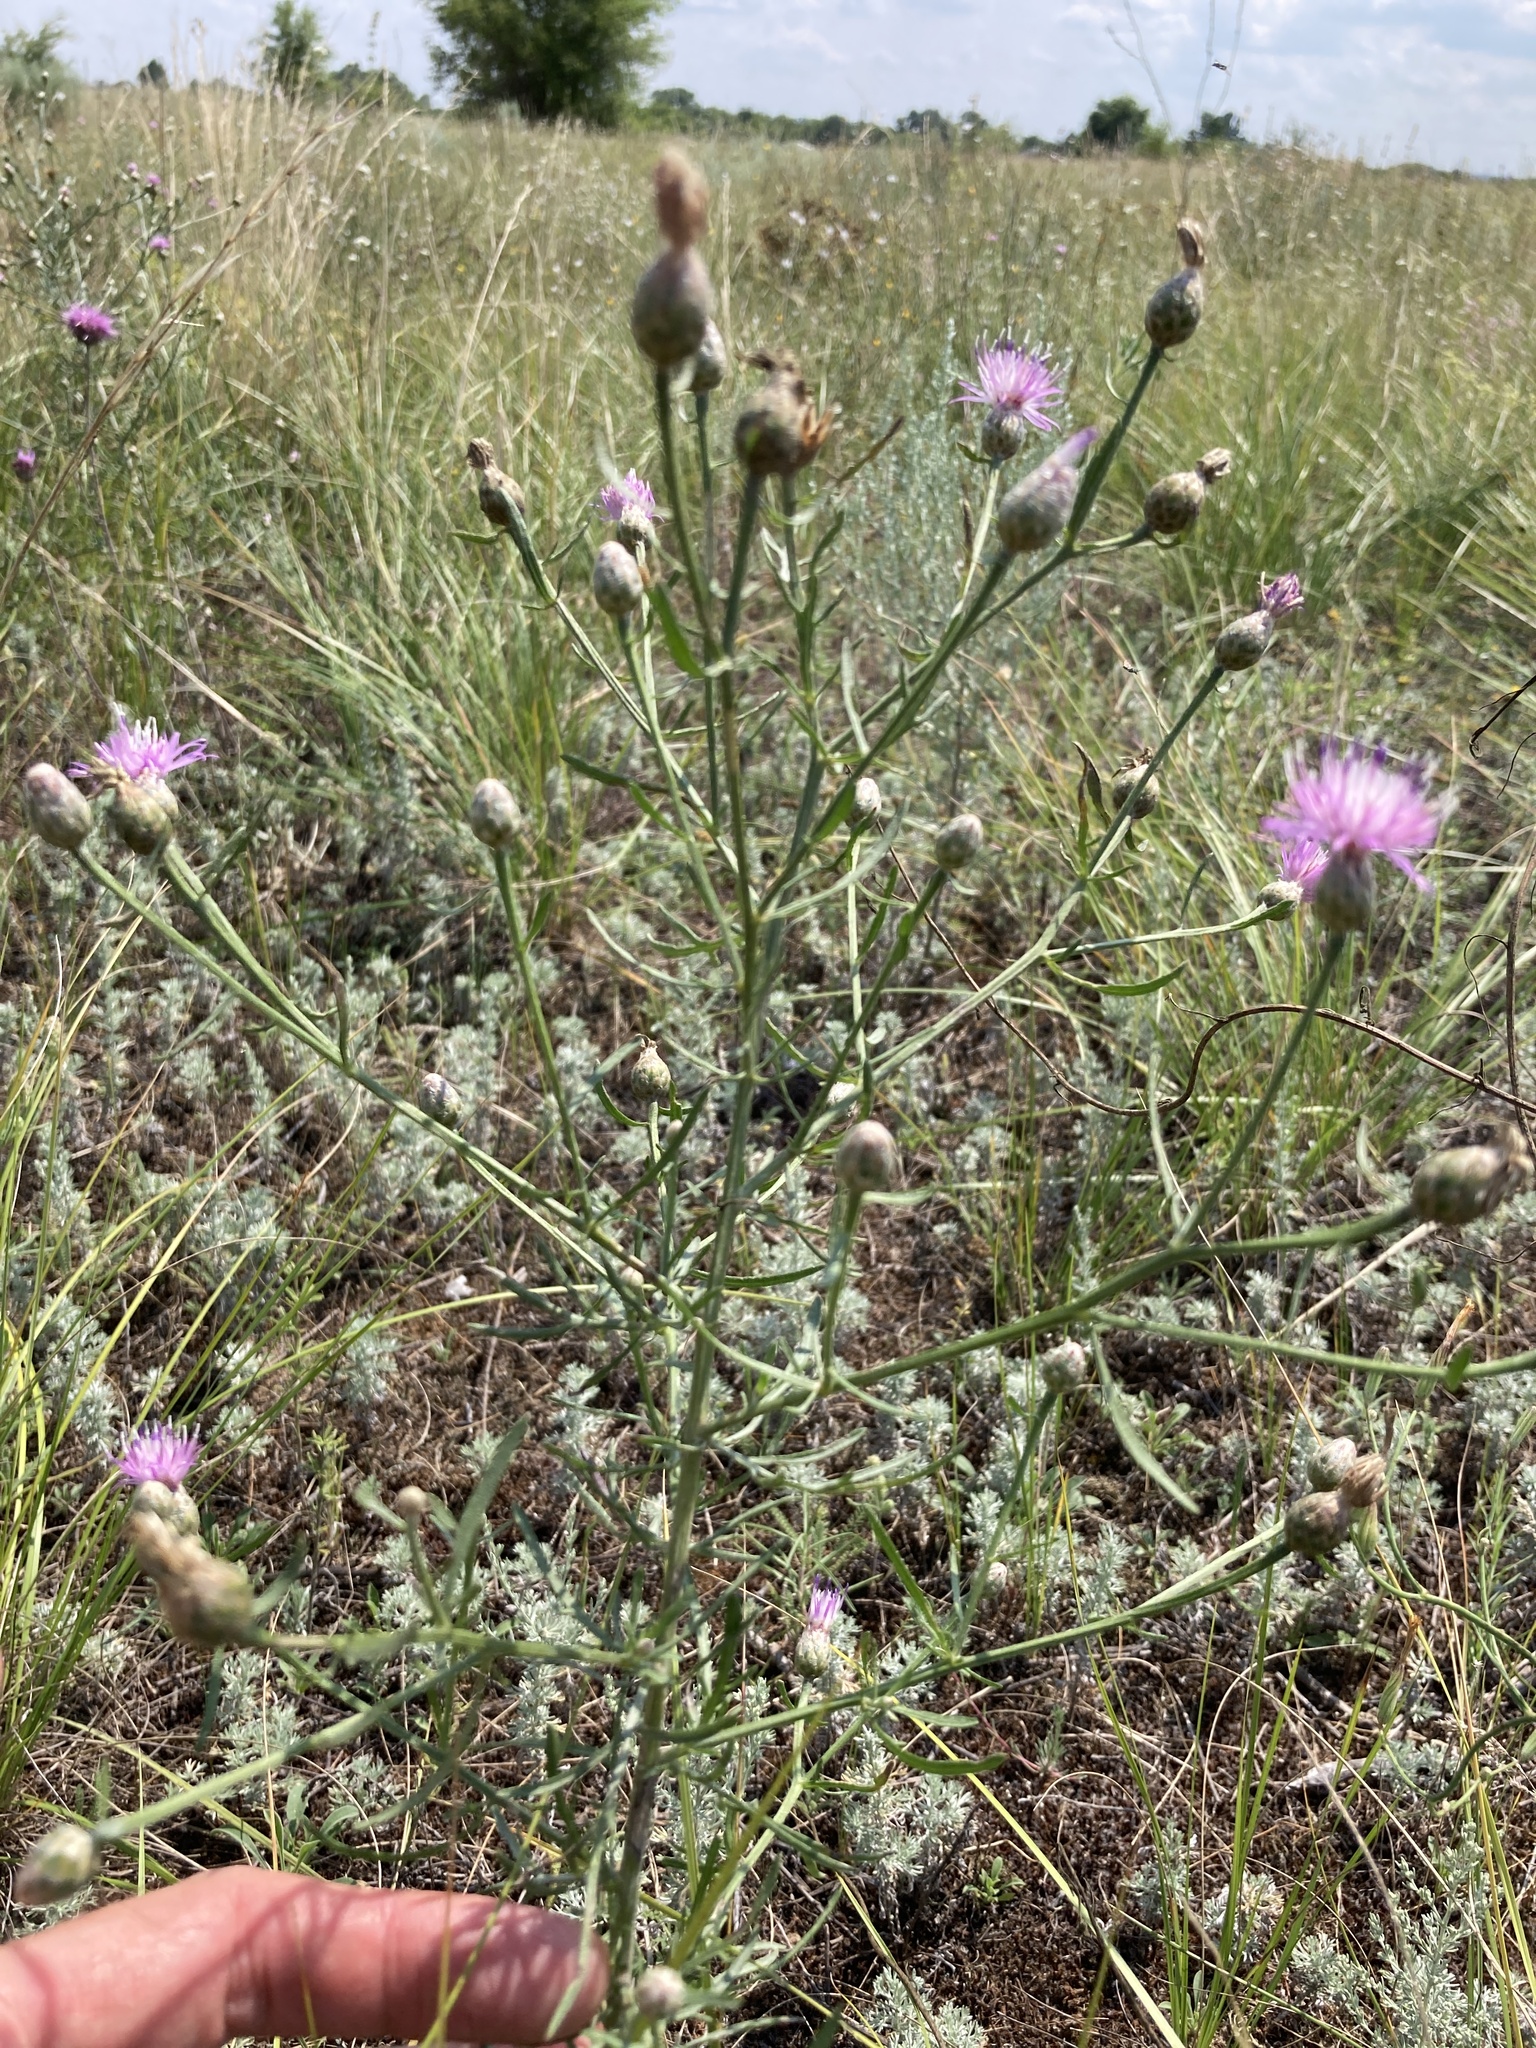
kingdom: Plantae
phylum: Tracheophyta
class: Magnoliopsida
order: Asterales
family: Asteraceae
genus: Centaurea
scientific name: Centaurea arenaria
